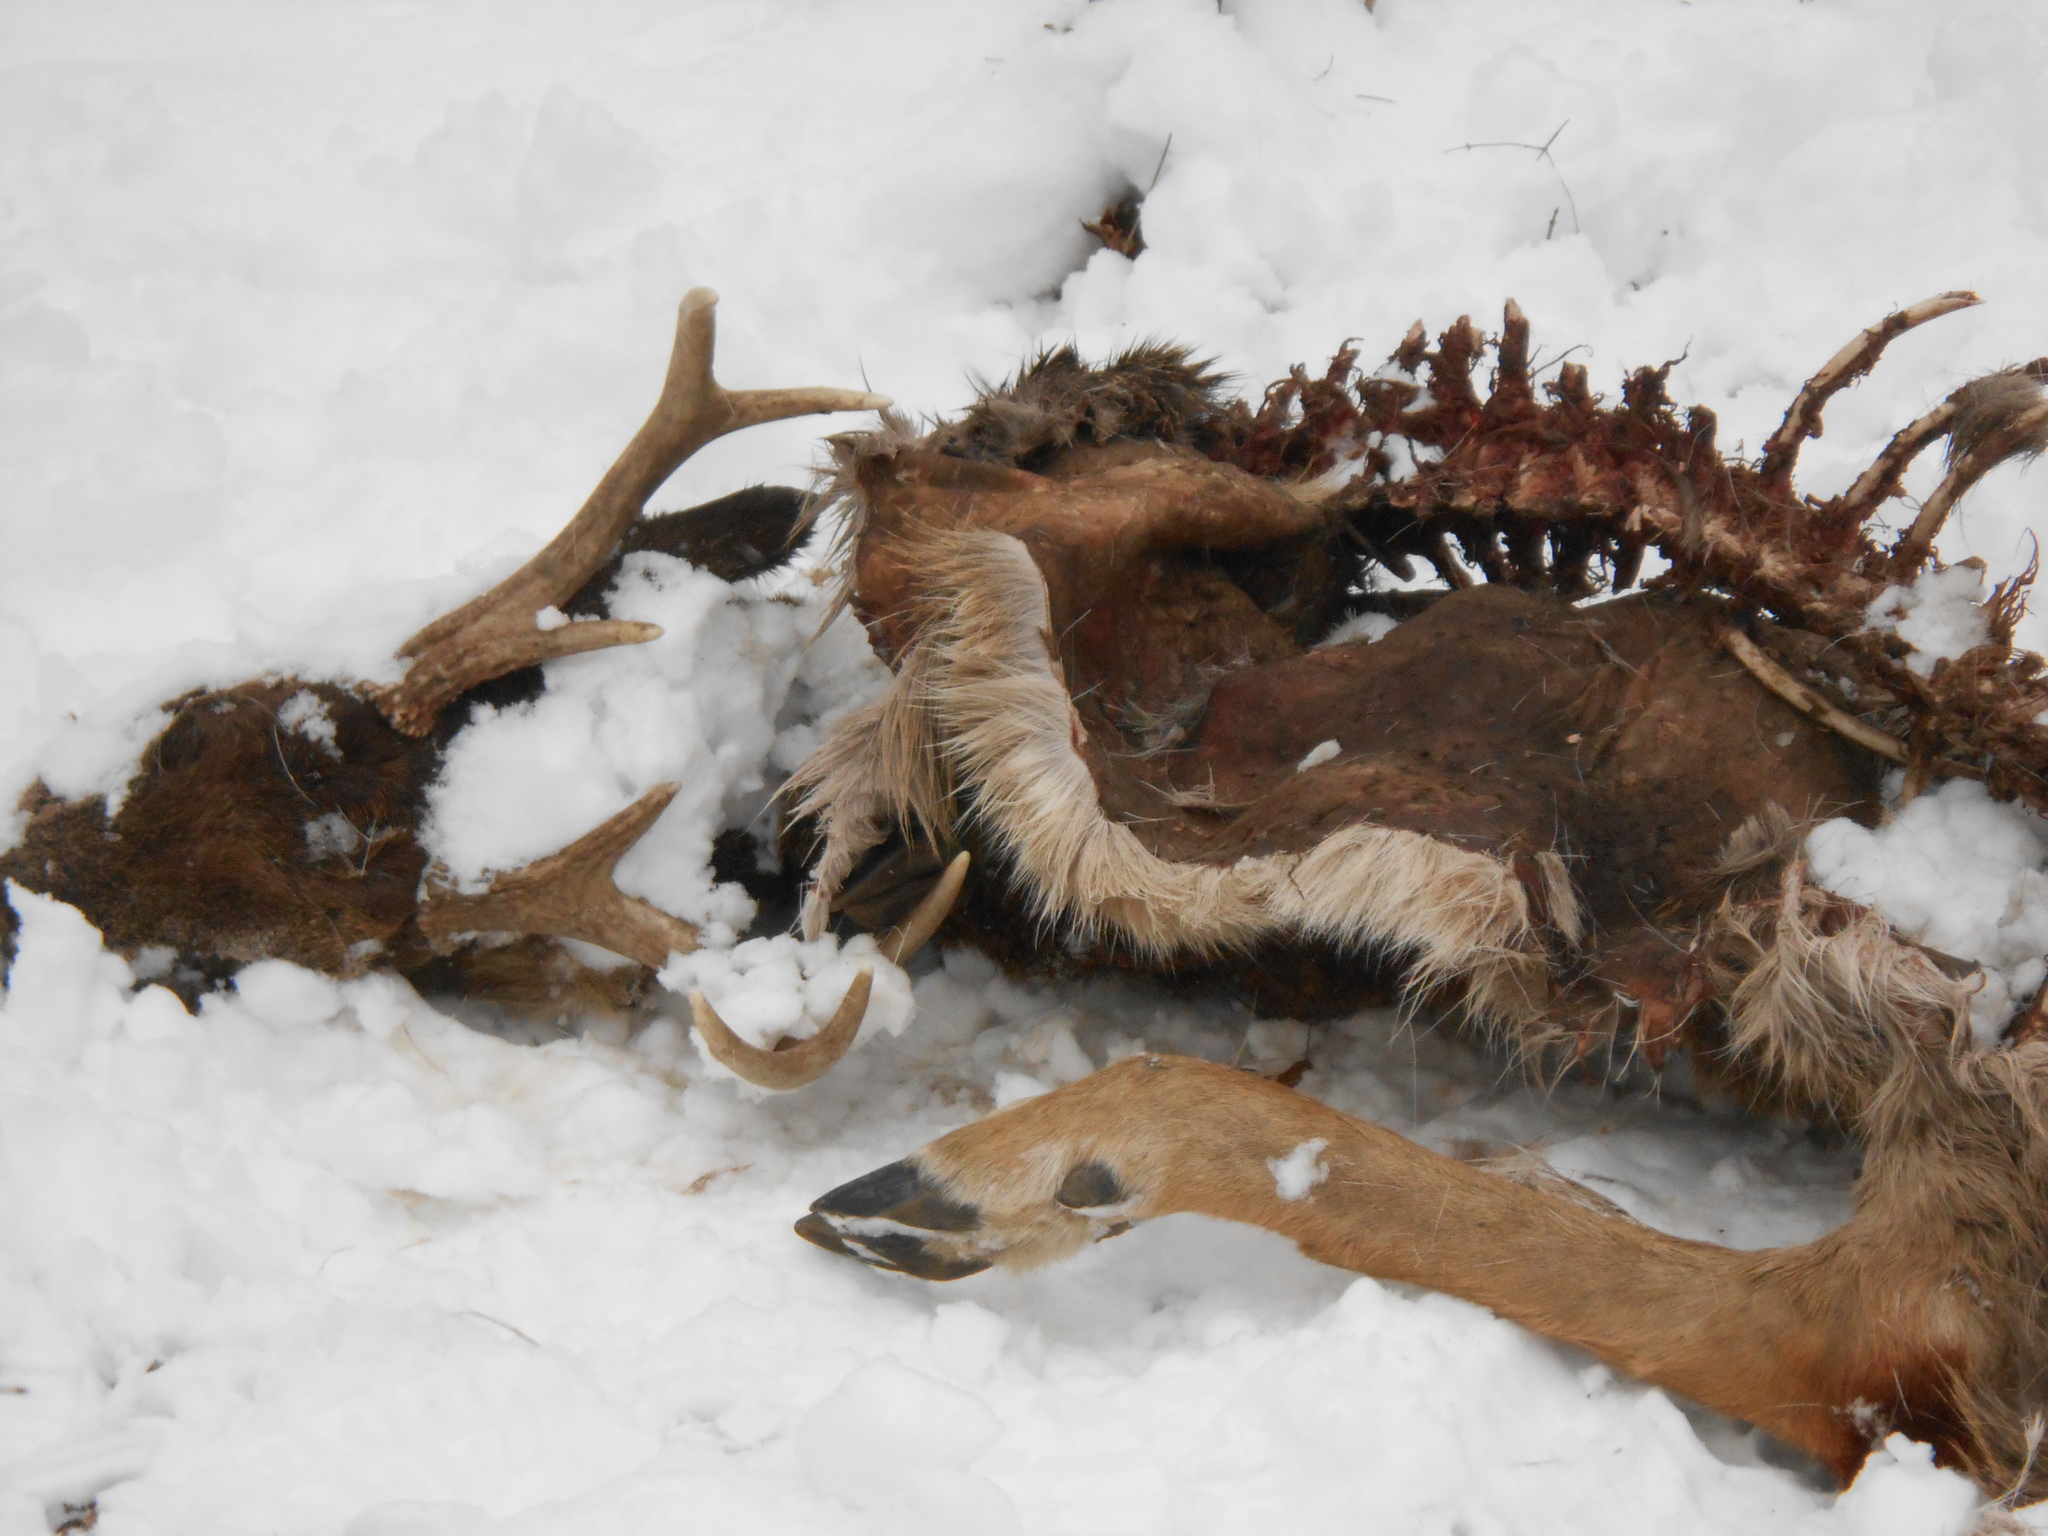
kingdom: Animalia
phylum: Chordata
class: Mammalia
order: Artiodactyla
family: Cervidae
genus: Odocoileus
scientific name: Odocoileus virginianus
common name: White-tailed deer
